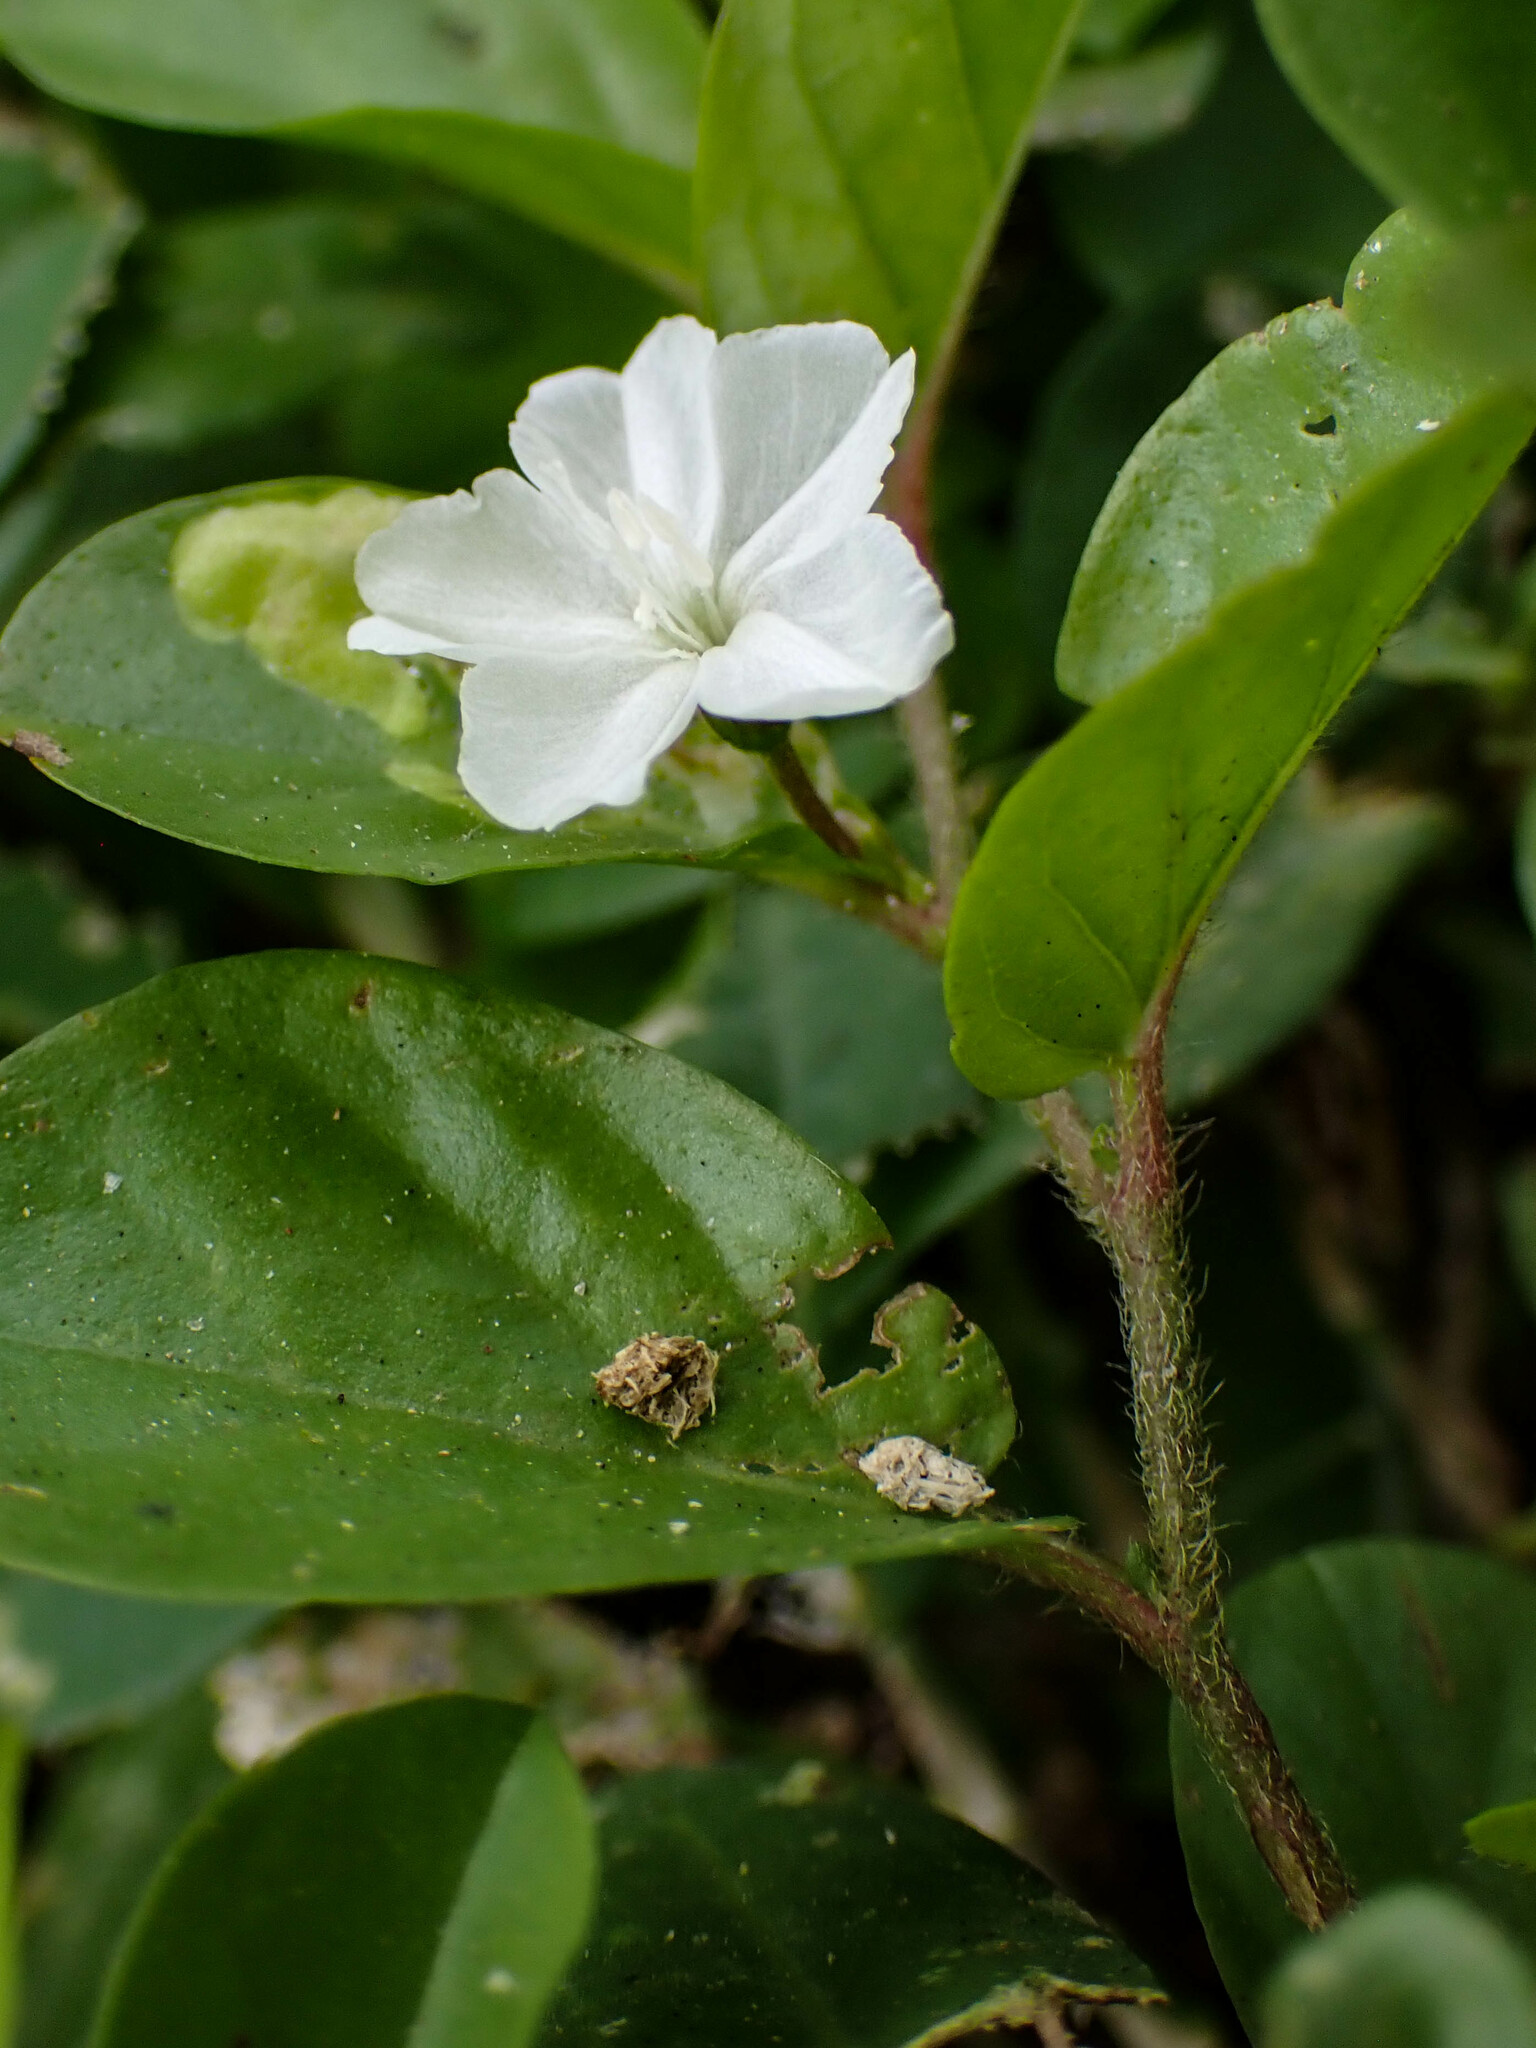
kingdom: Plantae
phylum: Tracheophyta
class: Magnoliopsida
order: Solanales
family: Convolvulaceae
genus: Evolvulus
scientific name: Evolvulus nummularius
